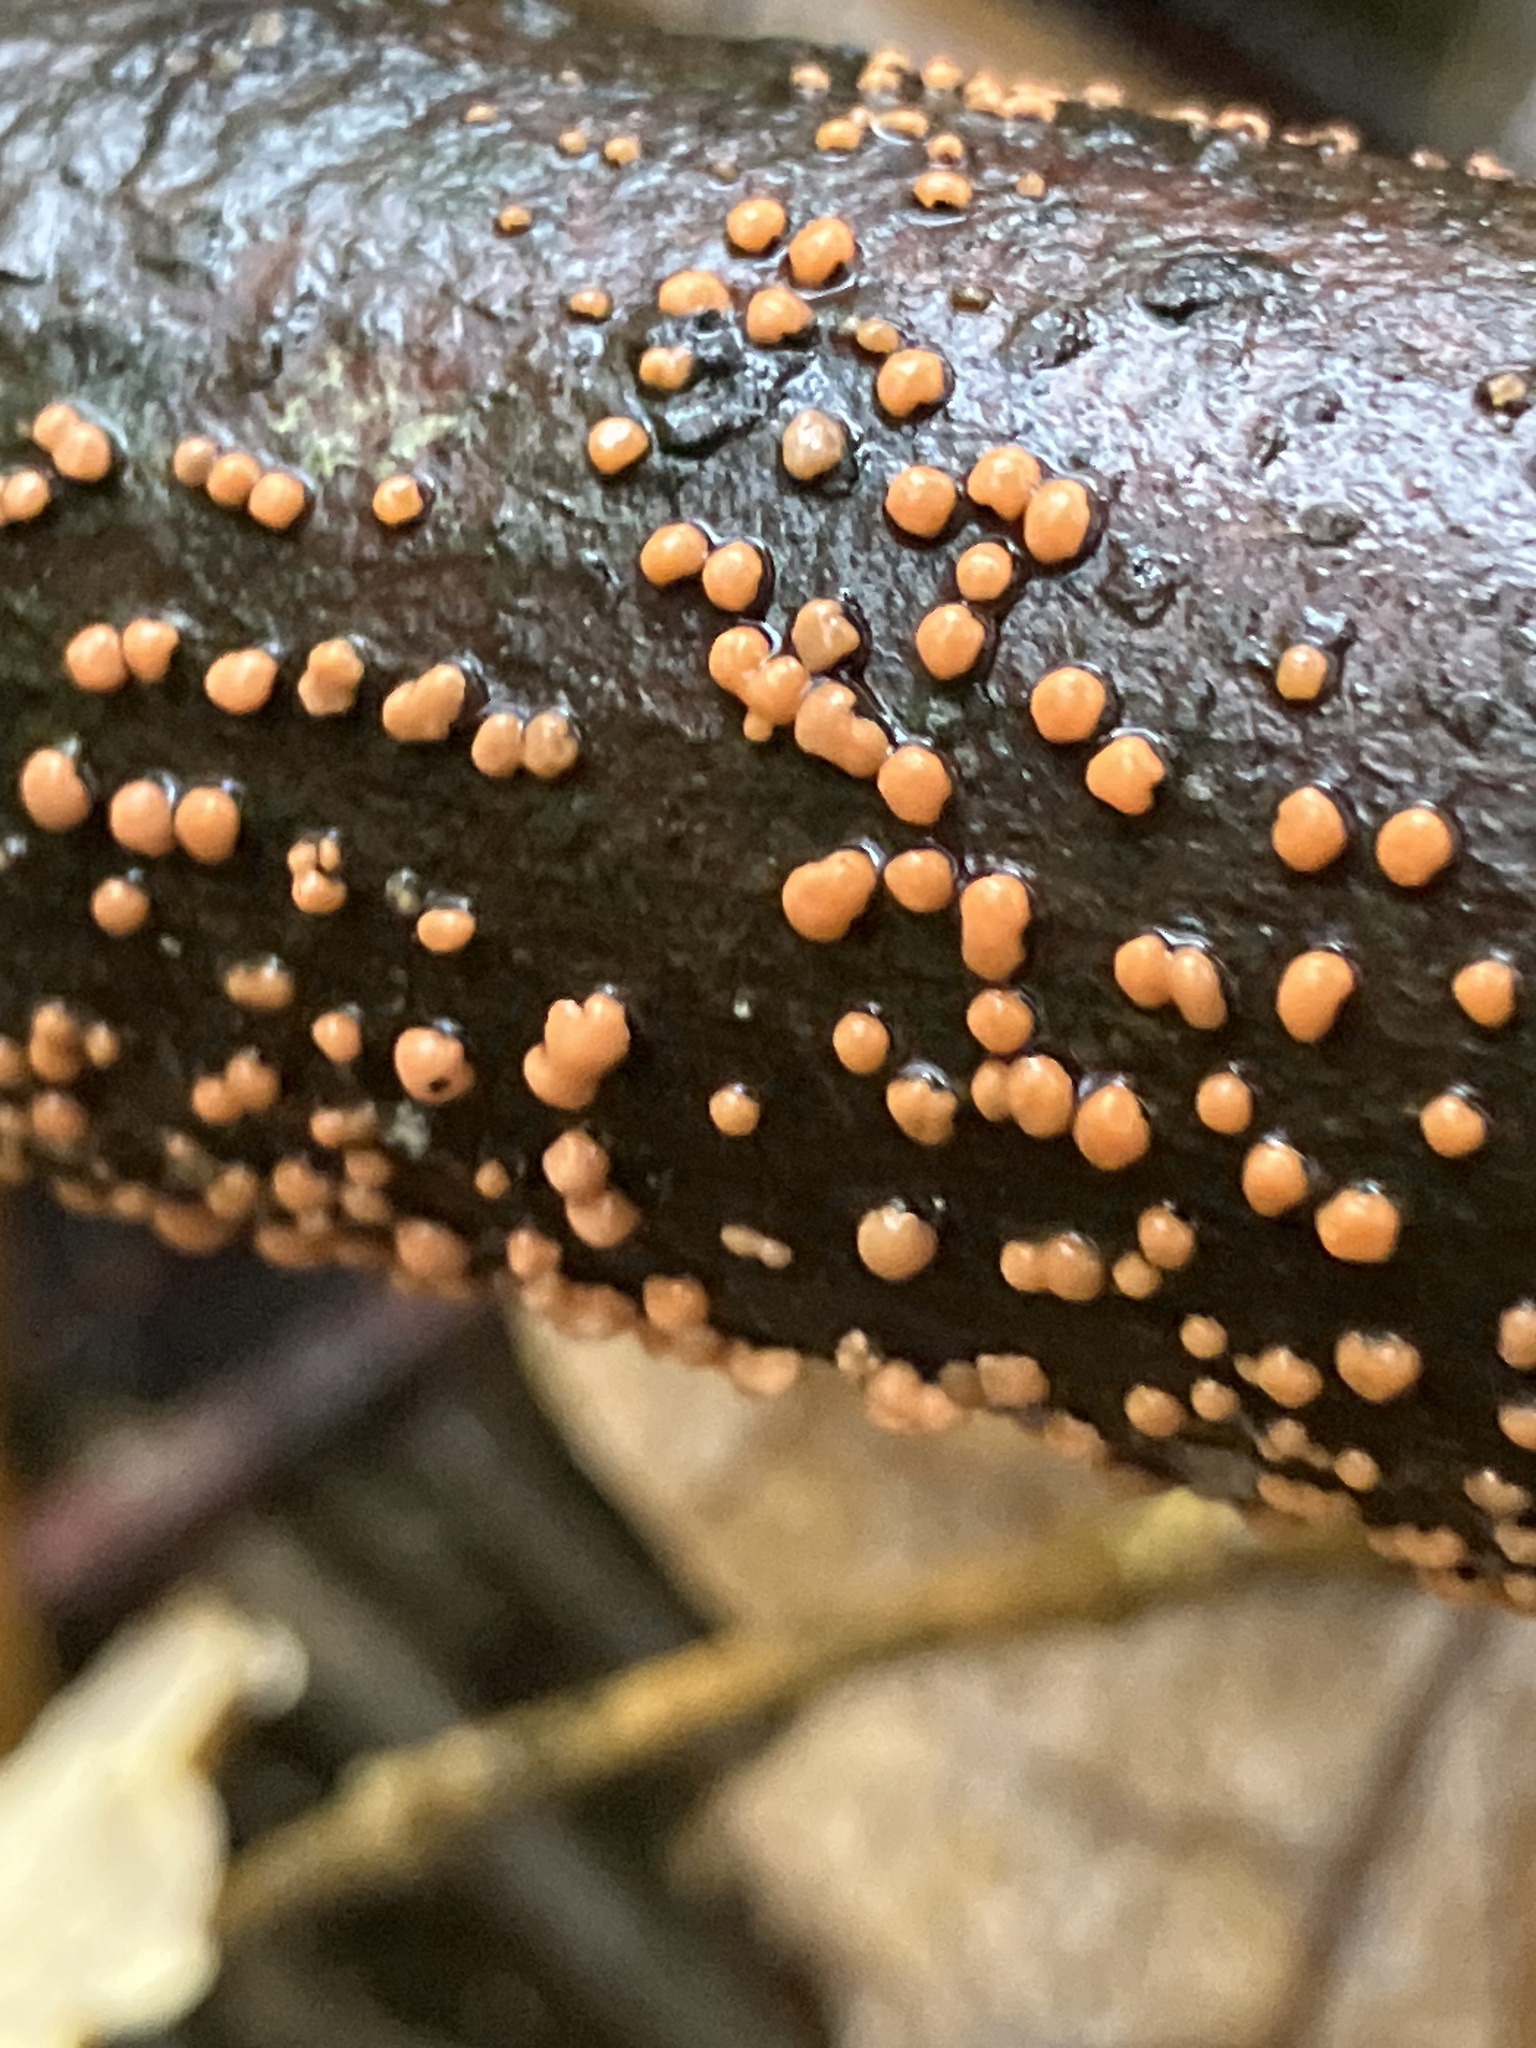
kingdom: Fungi
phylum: Ascomycota
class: Sordariomycetes
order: Hypocreales
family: Nectriaceae
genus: Nectria
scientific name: Nectria cinnabarina
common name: Coral spot
